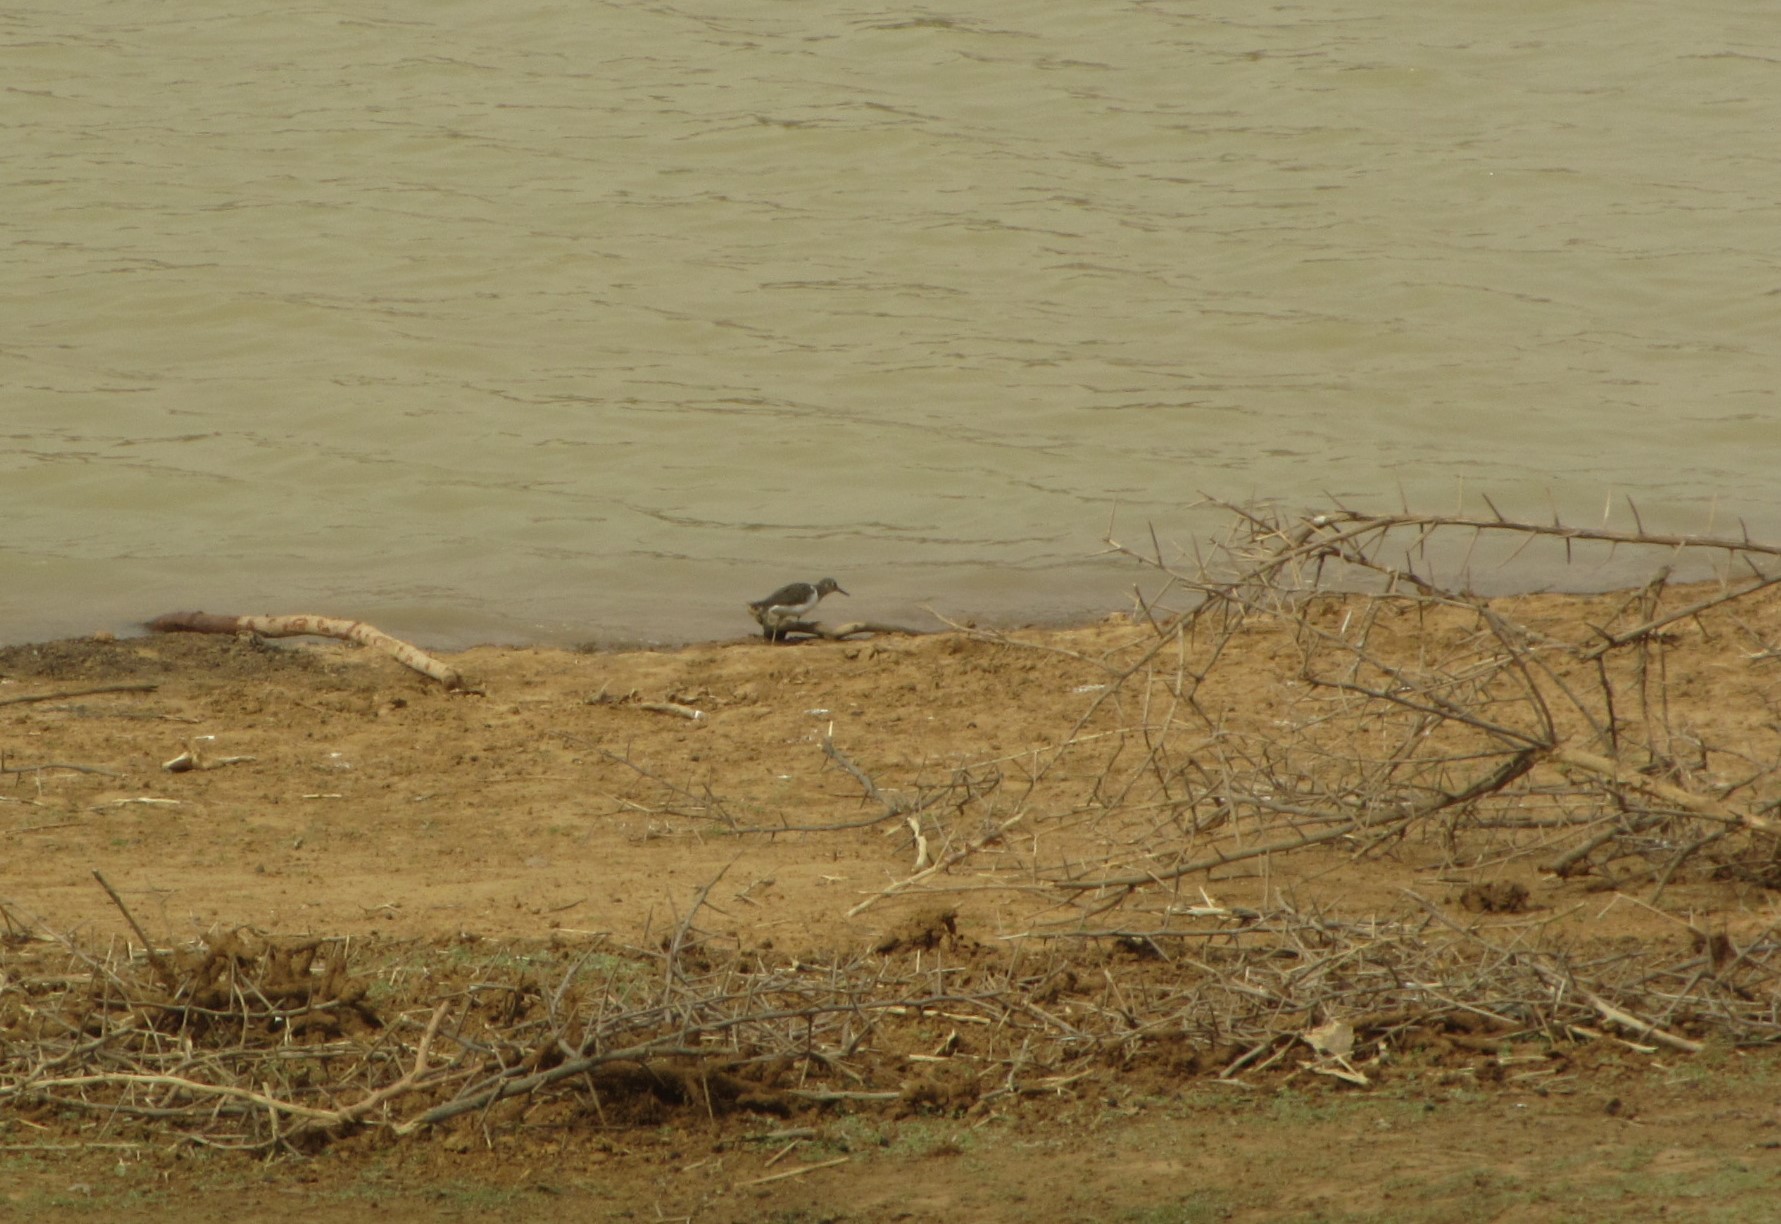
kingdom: Animalia
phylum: Chordata
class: Aves
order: Charadriiformes
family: Scolopacidae
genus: Actitis
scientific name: Actitis hypoleucos
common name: Common sandpiper
